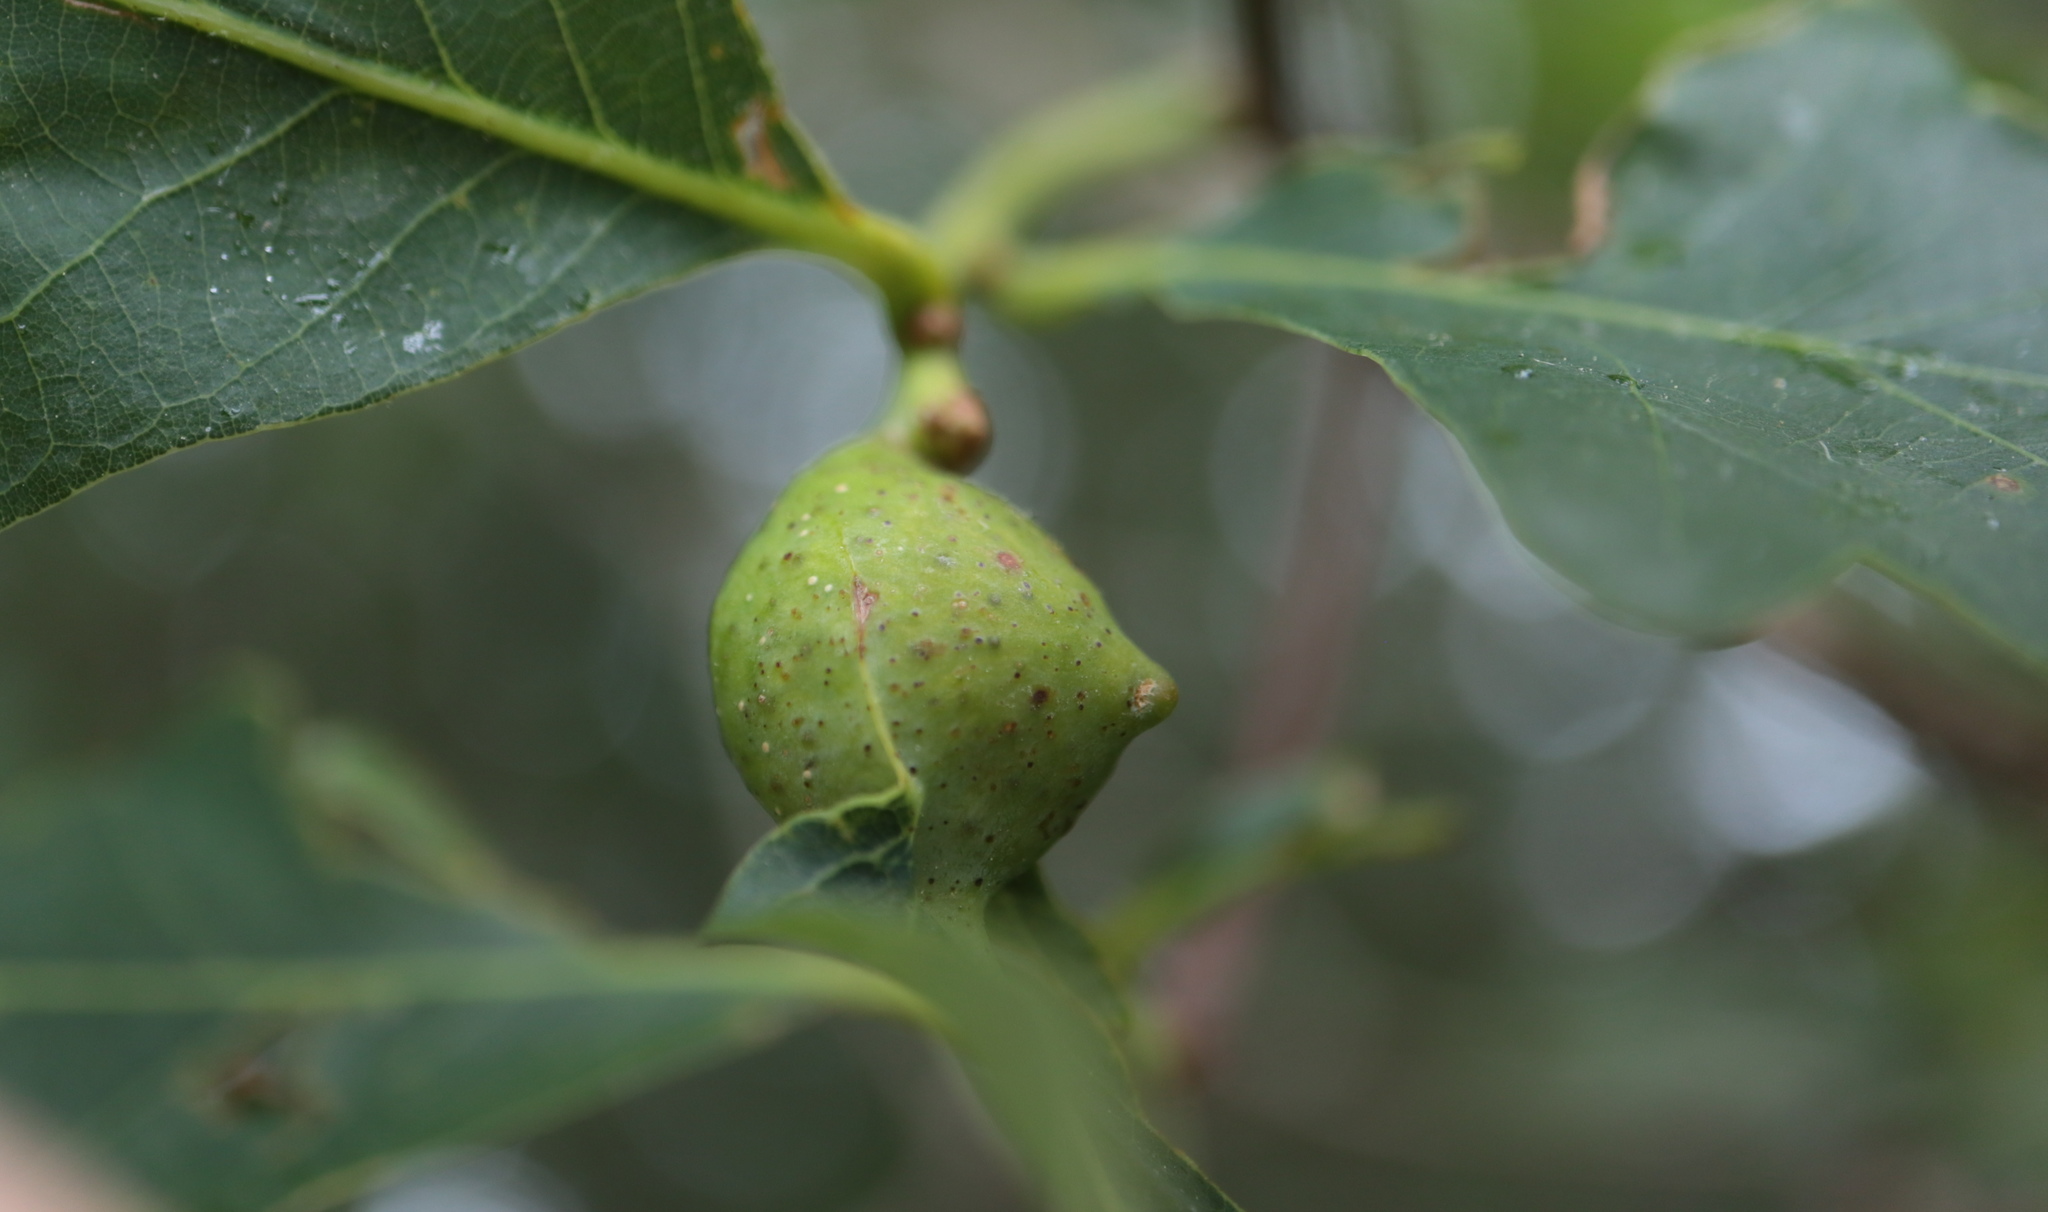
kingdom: Animalia
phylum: Arthropoda
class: Insecta
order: Hymenoptera
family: Cynipidae
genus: Andricus
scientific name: Andricus
